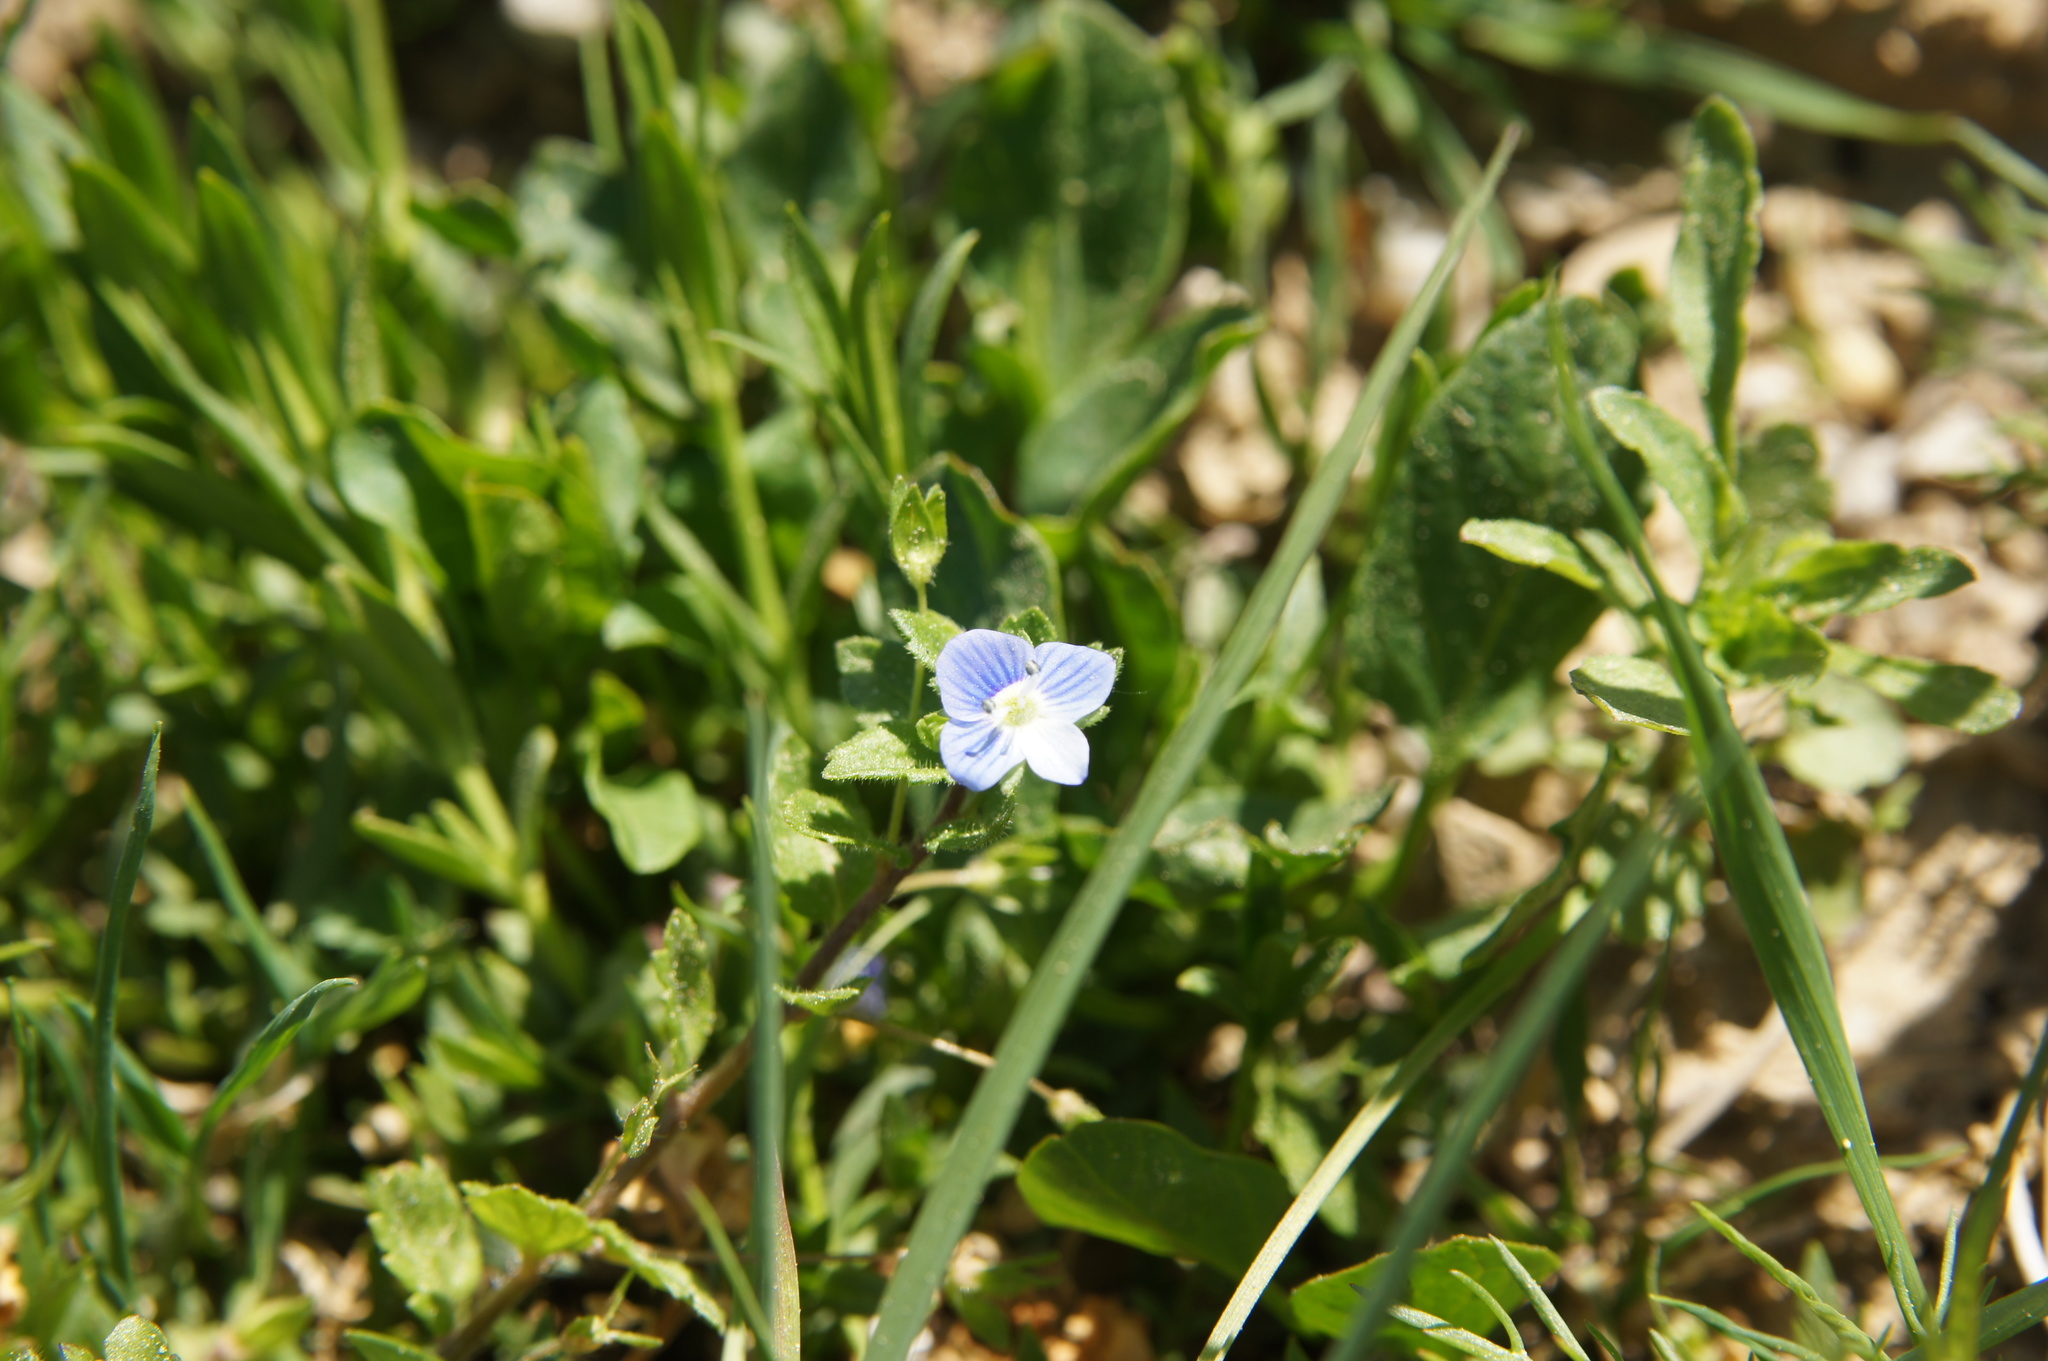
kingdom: Plantae
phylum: Tracheophyta
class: Magnoliopsida
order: Lamiales
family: Plantaginaceae
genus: Veronica
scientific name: Veronica persica
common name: Common field-speedwell
